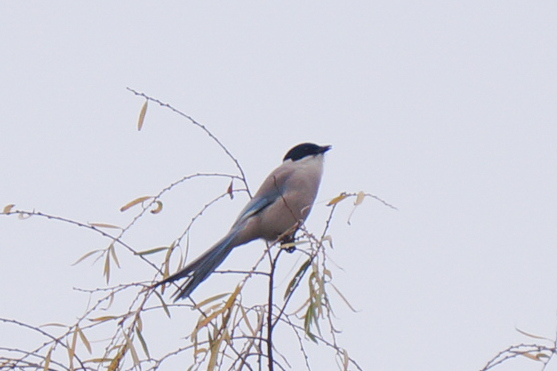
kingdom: Animalia
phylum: Chordata
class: Aves
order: Passeriformes
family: Corvidae
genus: Cyanopica
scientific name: Cyanopica cyanus
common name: Azure-winged magpie
